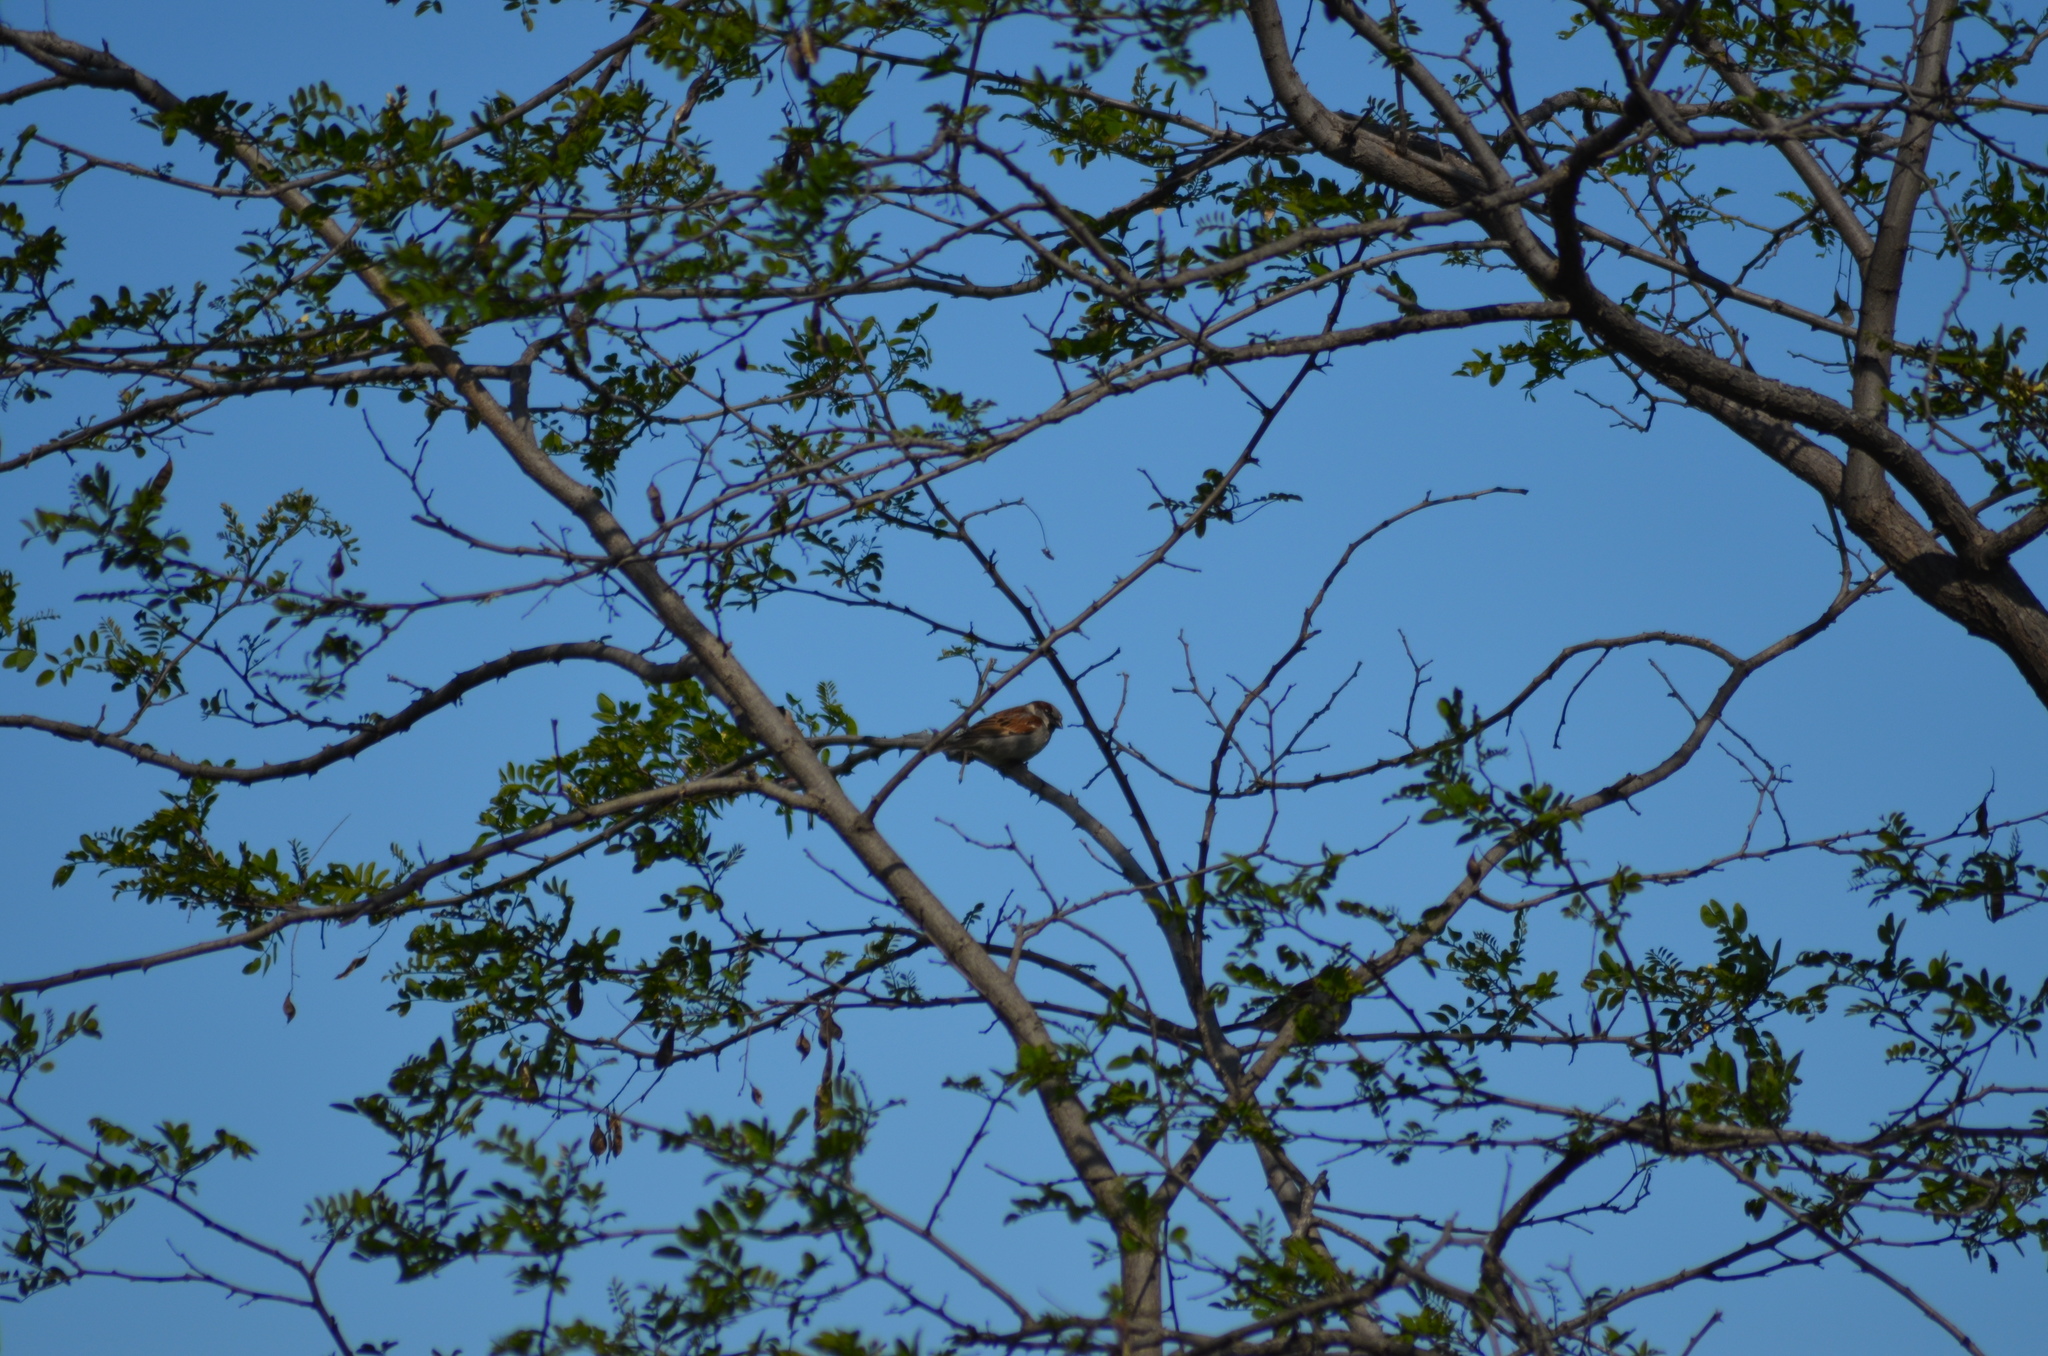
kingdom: Animalia
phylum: Chordata
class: Aves
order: Passeriformes
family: Passeridae
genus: Passer
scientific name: Passer domesticus
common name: House sparrow
